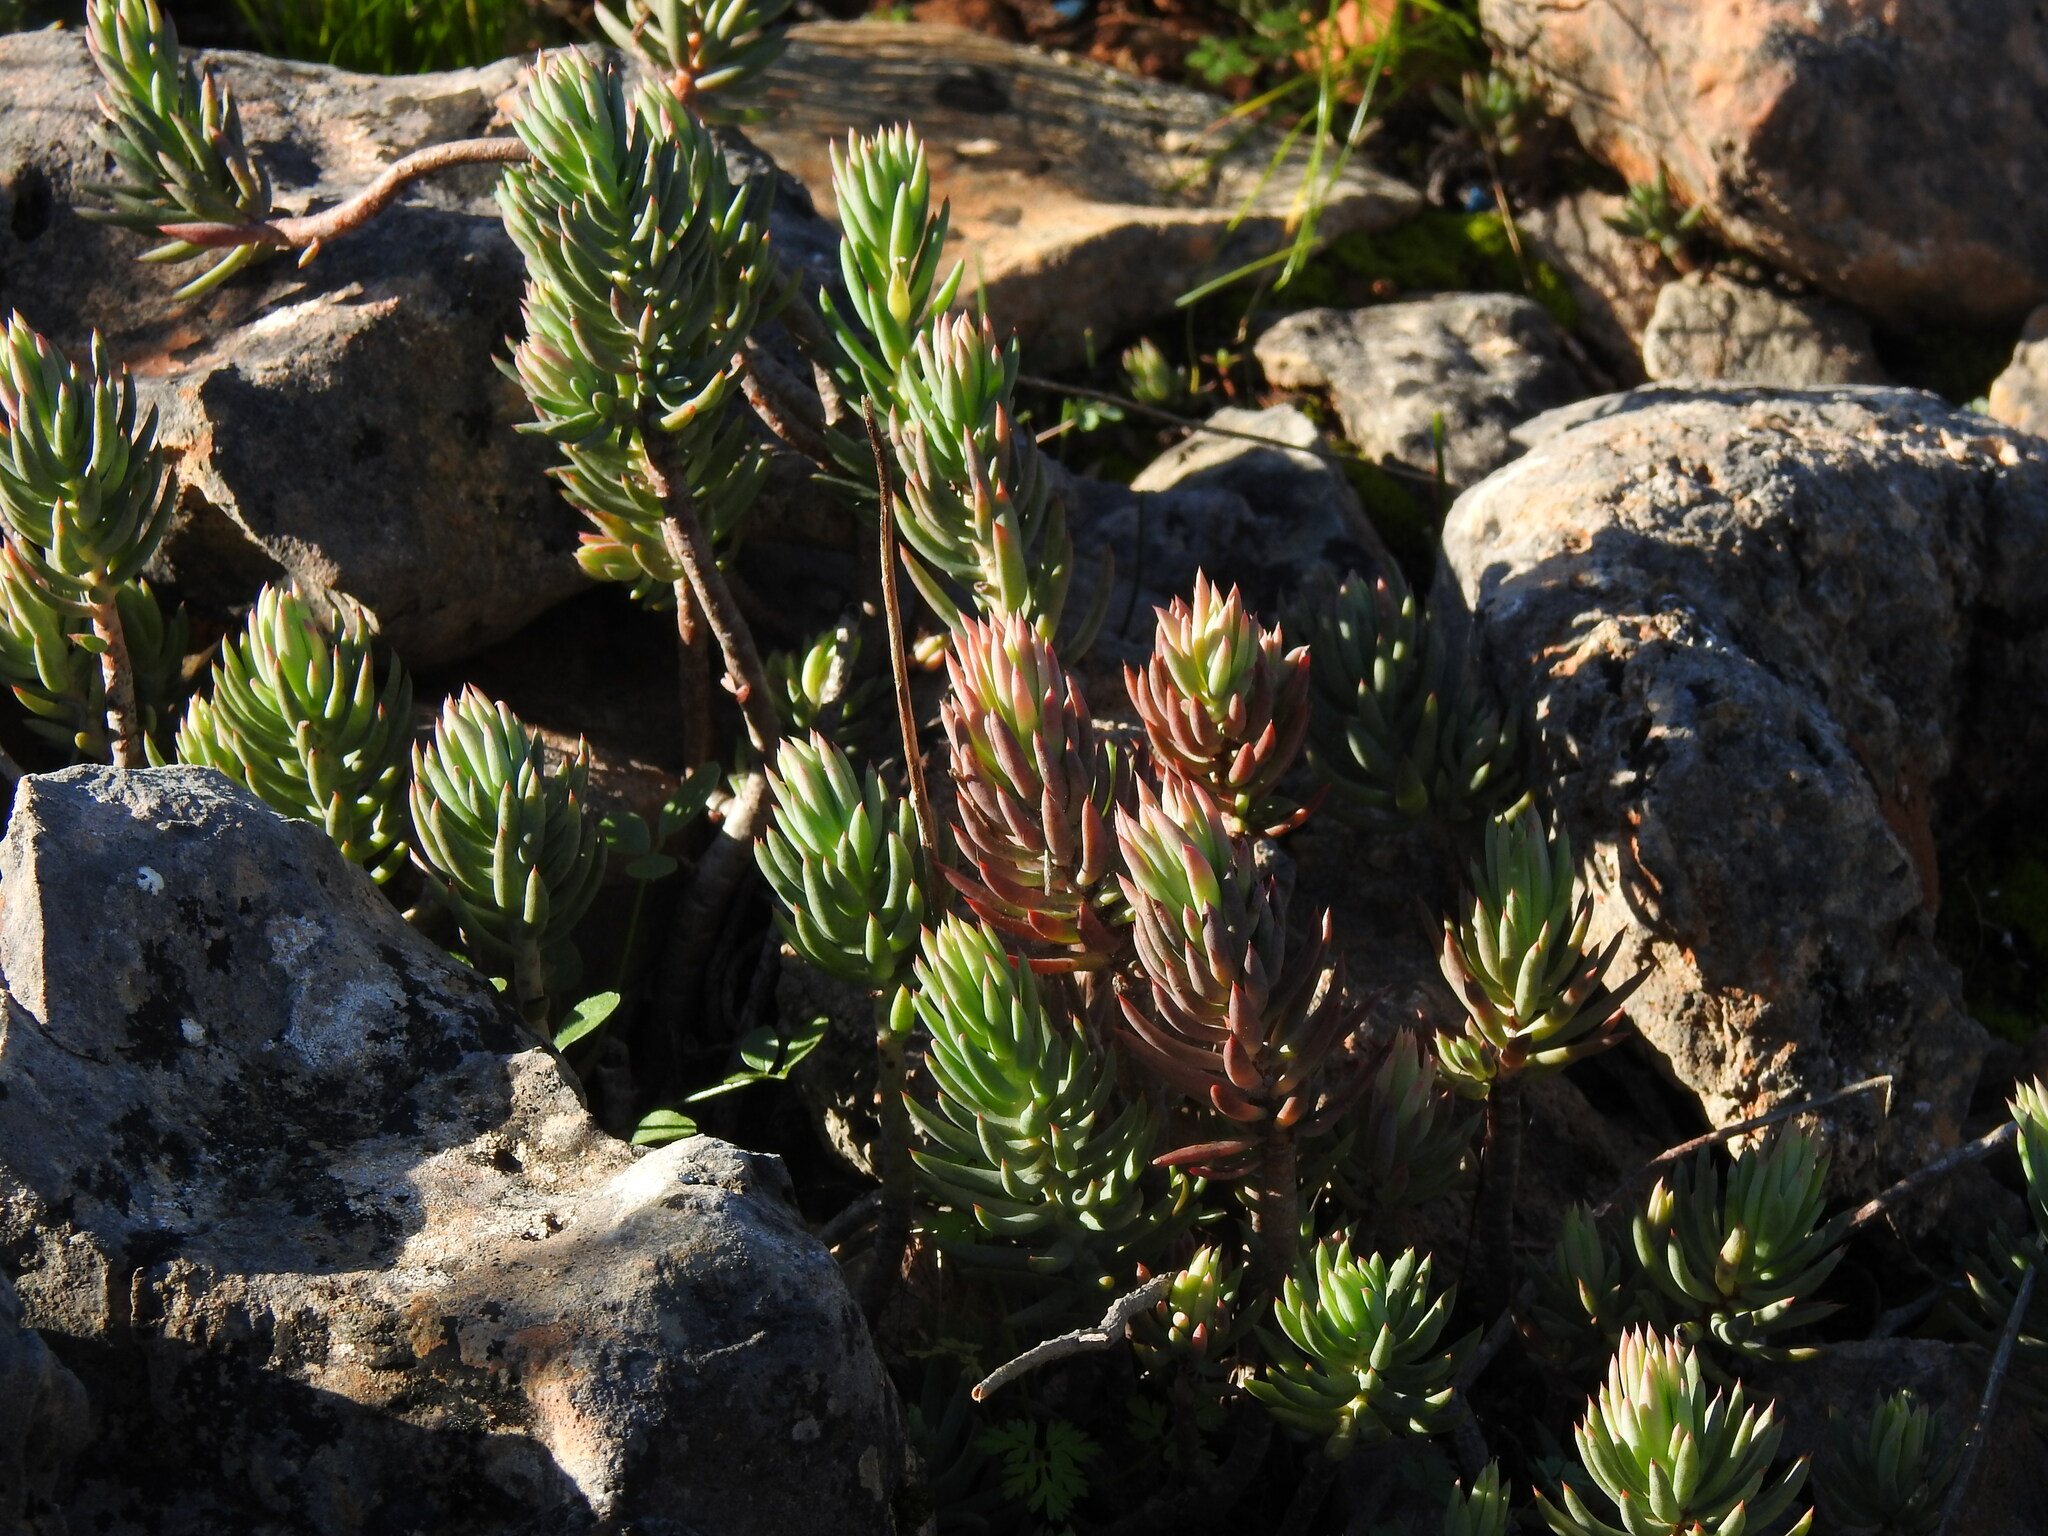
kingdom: Plantae
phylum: Tracheophyta
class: Magnoliopsida
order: Saxifragales
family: Crassulaceae
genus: Petrosedum
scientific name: Petrosedum sediforme
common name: Pale stonecrop
